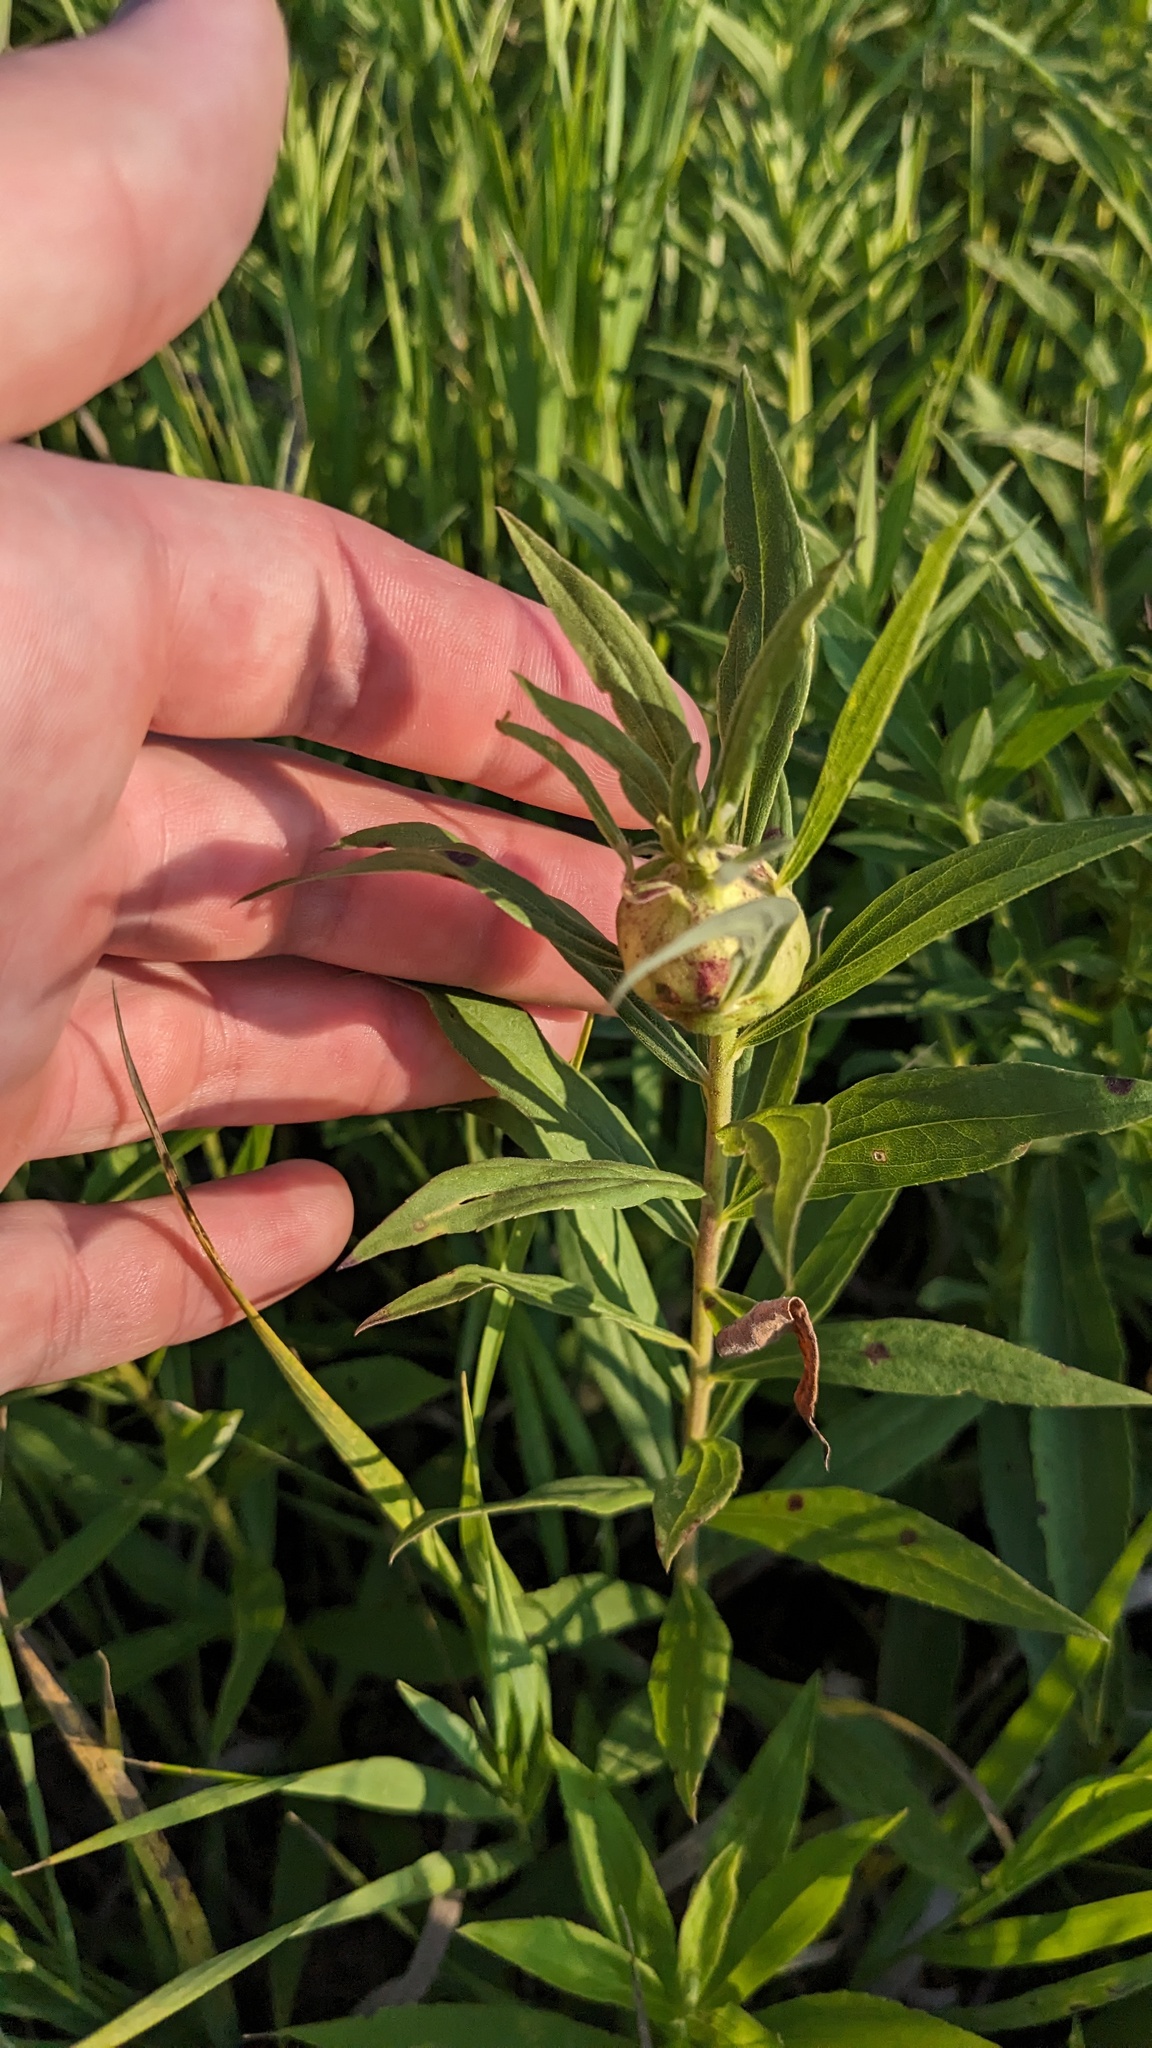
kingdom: Animalia
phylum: Arthropoda
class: Insecta
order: Diptera
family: Tephritidae
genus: Eurosta
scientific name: Eurosta solidaginis
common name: Goldenrod gall fly
